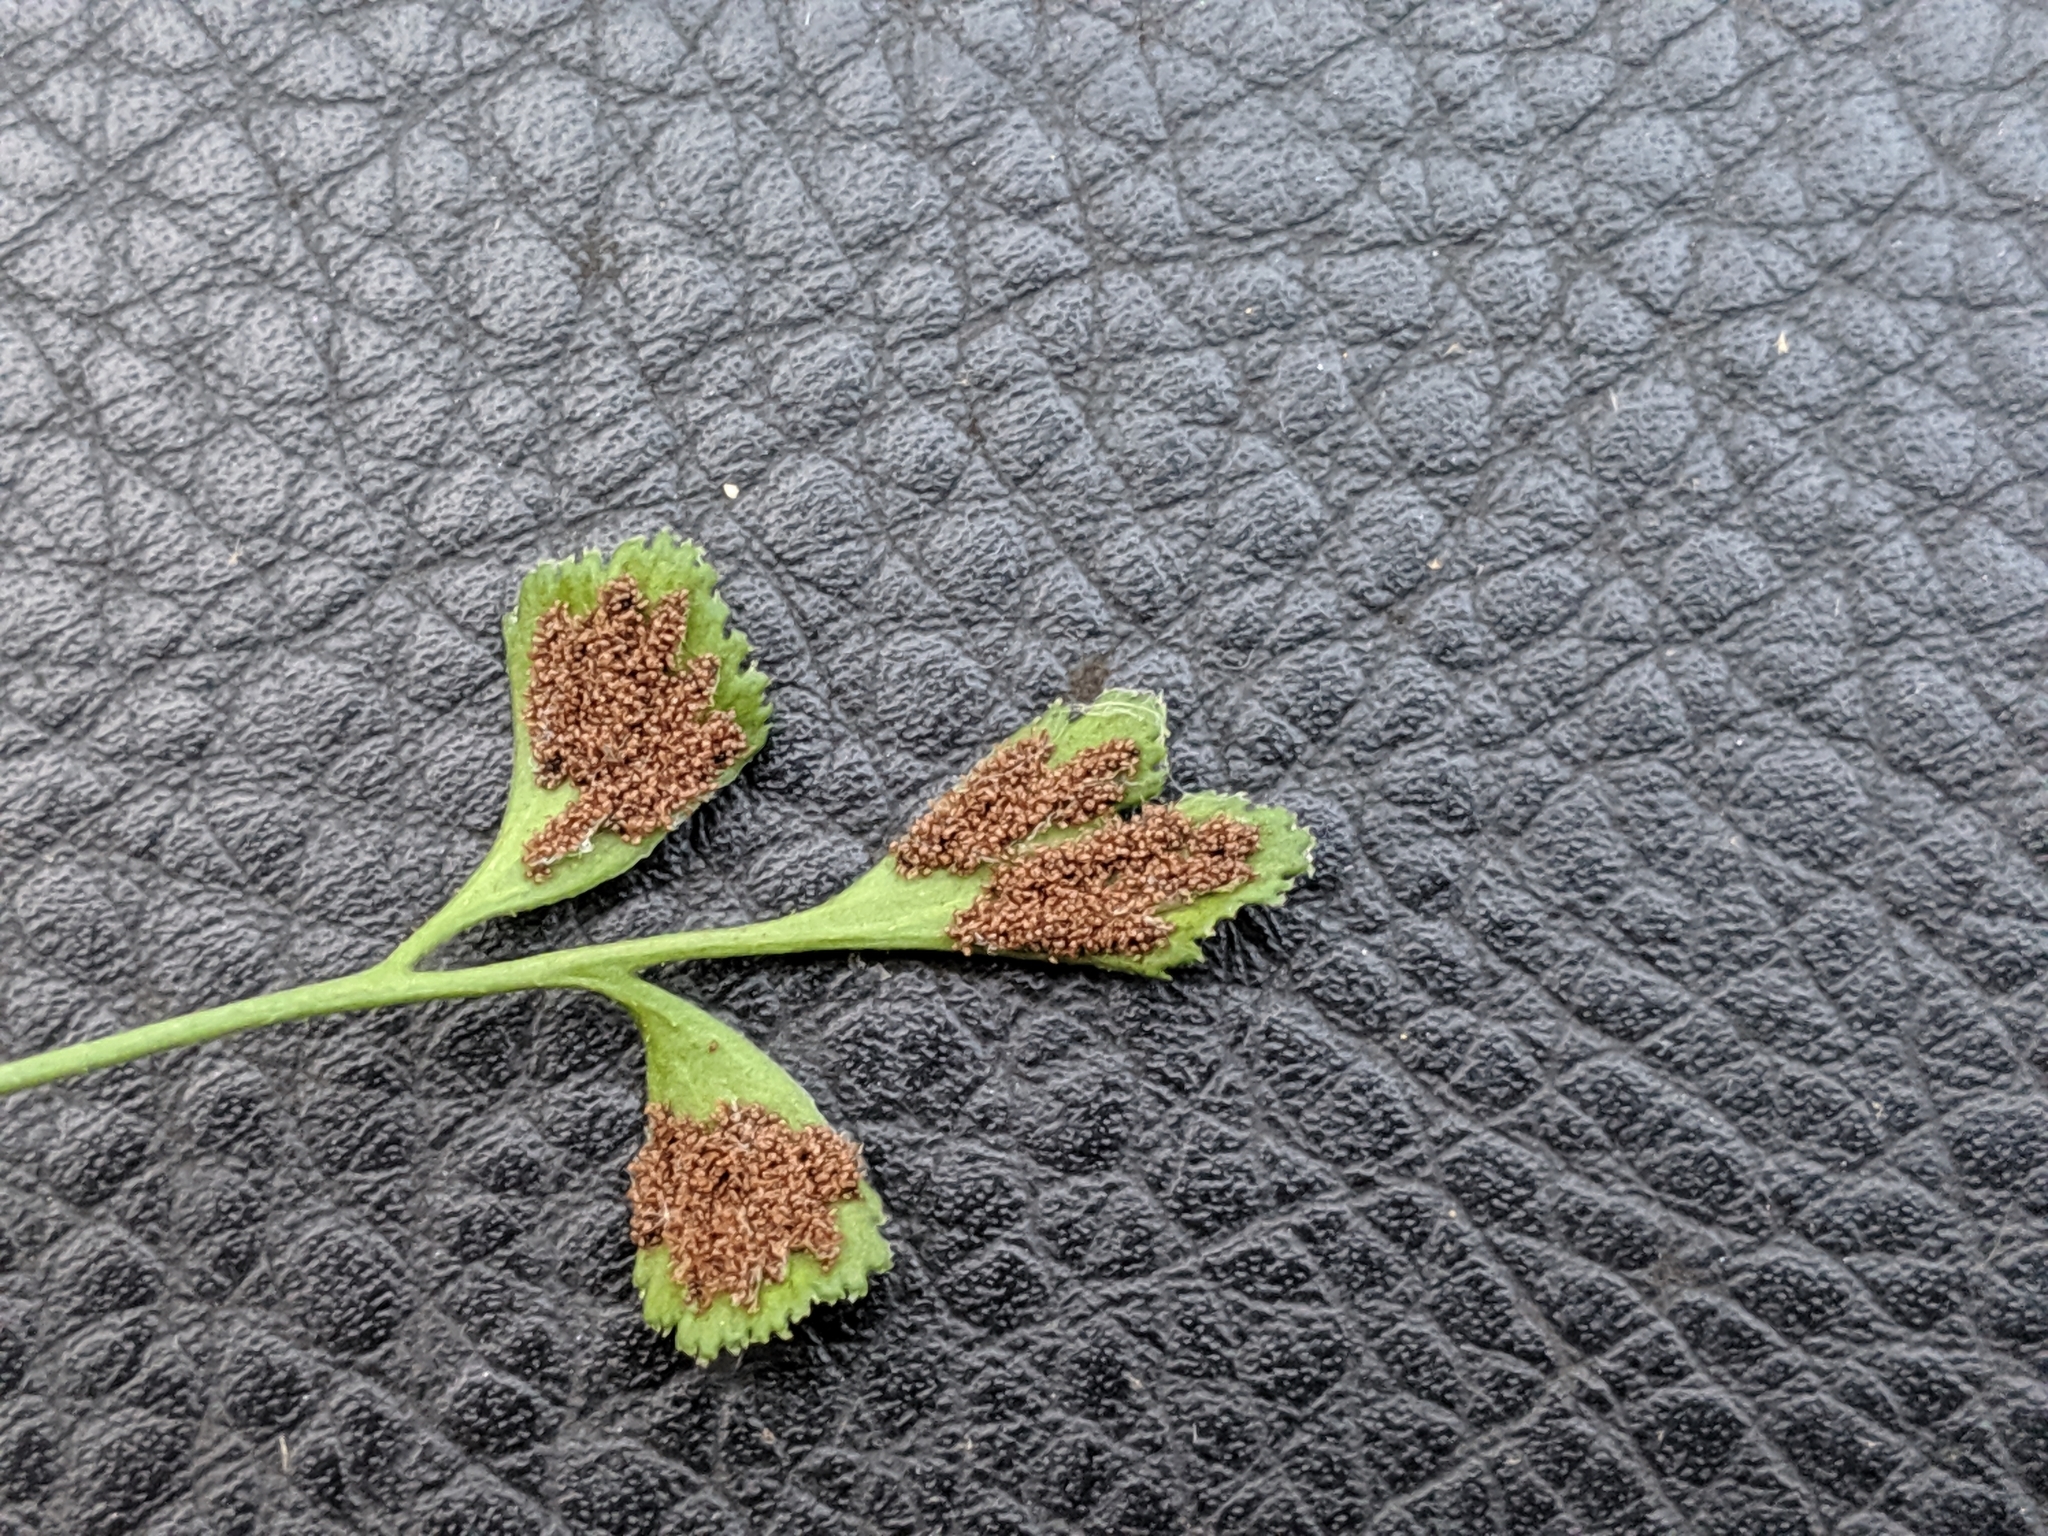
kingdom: Plantae
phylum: Tracheophyta
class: Polypodiopsida
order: Polypodiales
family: Aspleniaceae
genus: Asplenium
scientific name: Asplenium ruta-muraria
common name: Wall-rue
